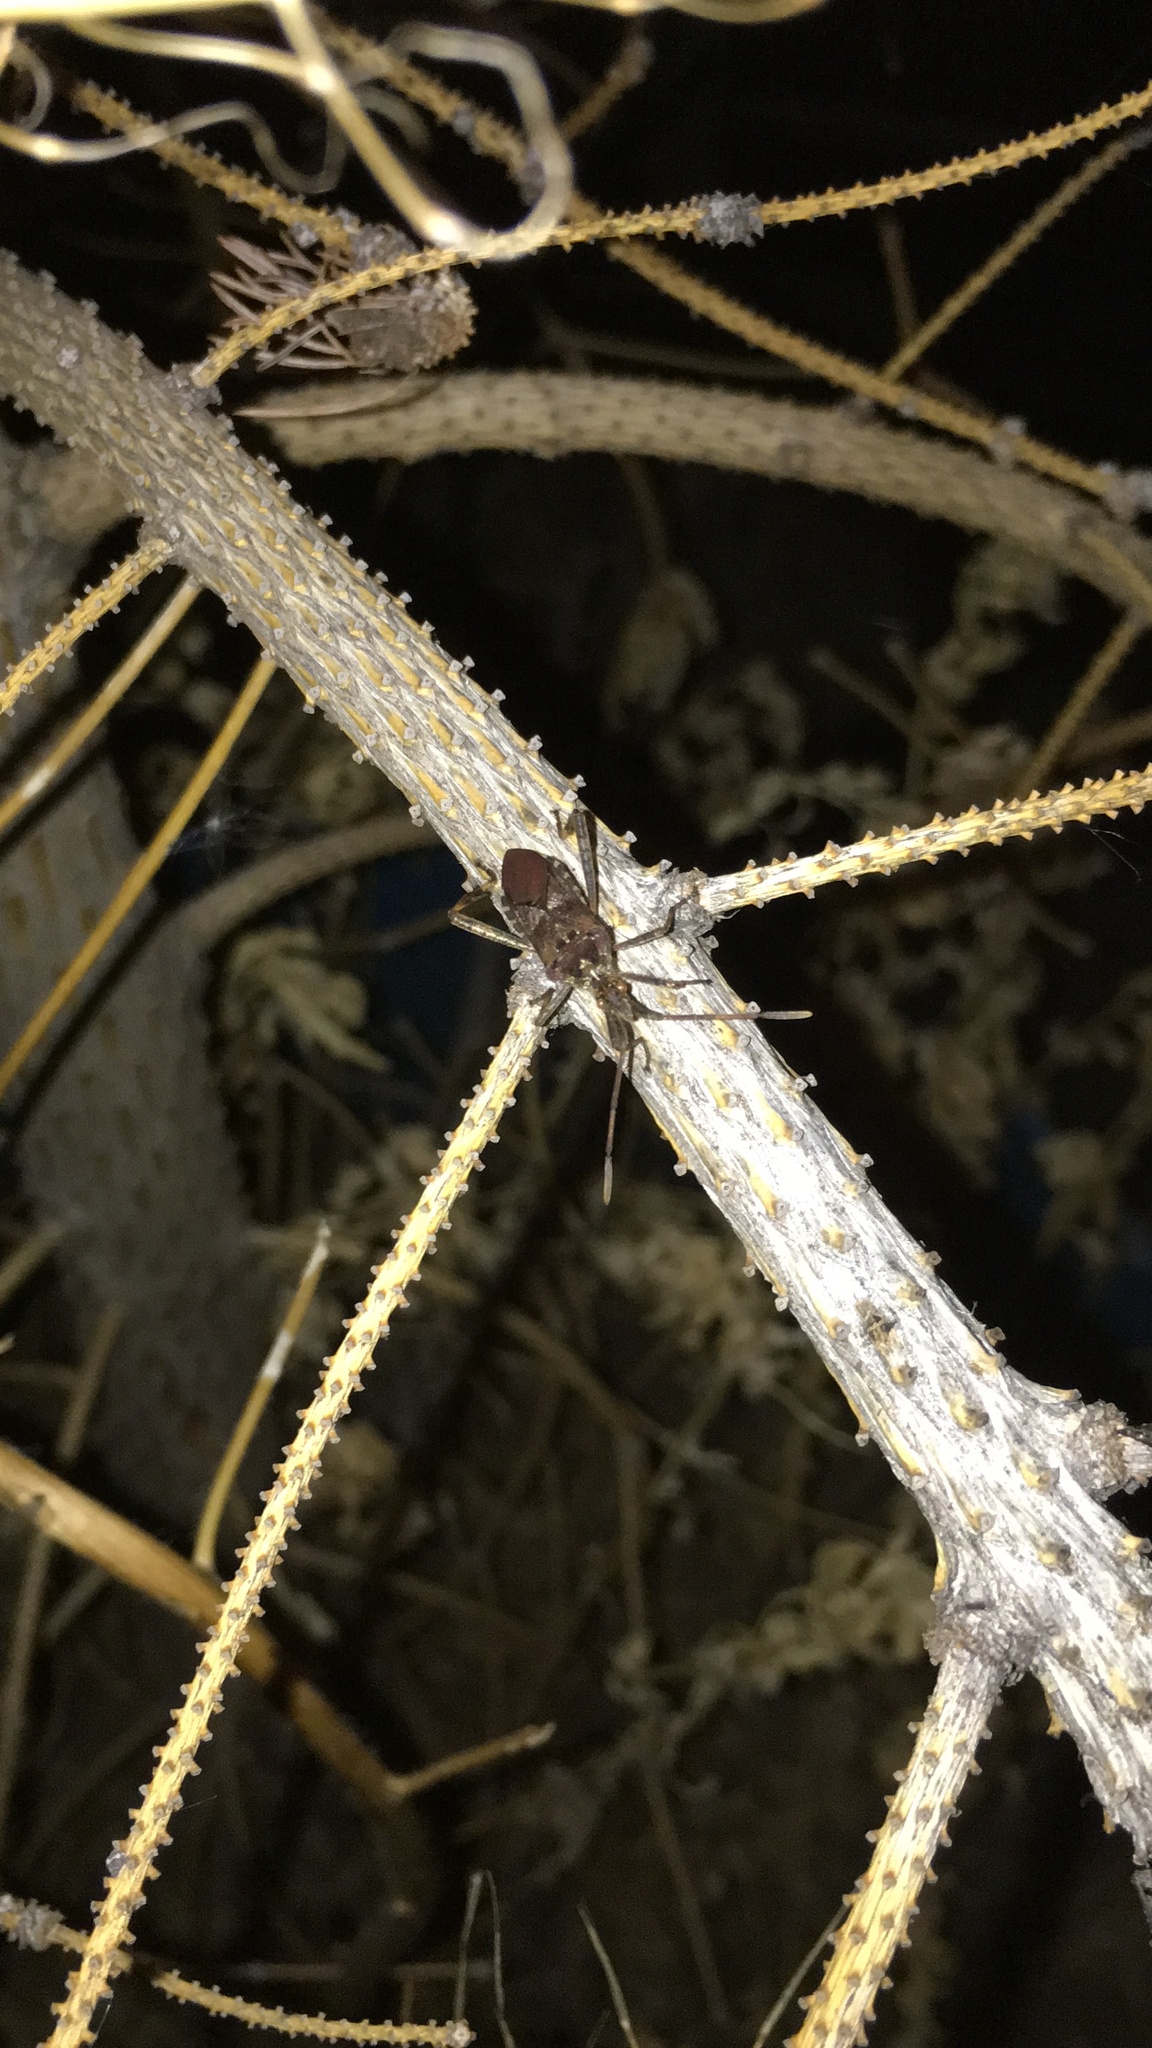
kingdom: Animalia
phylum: Arthropoda
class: Insecta
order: Hemiptera
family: Coreidae
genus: Leptoglossus
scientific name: Leptoglossus occidentalis
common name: Western conifer-seed bug
